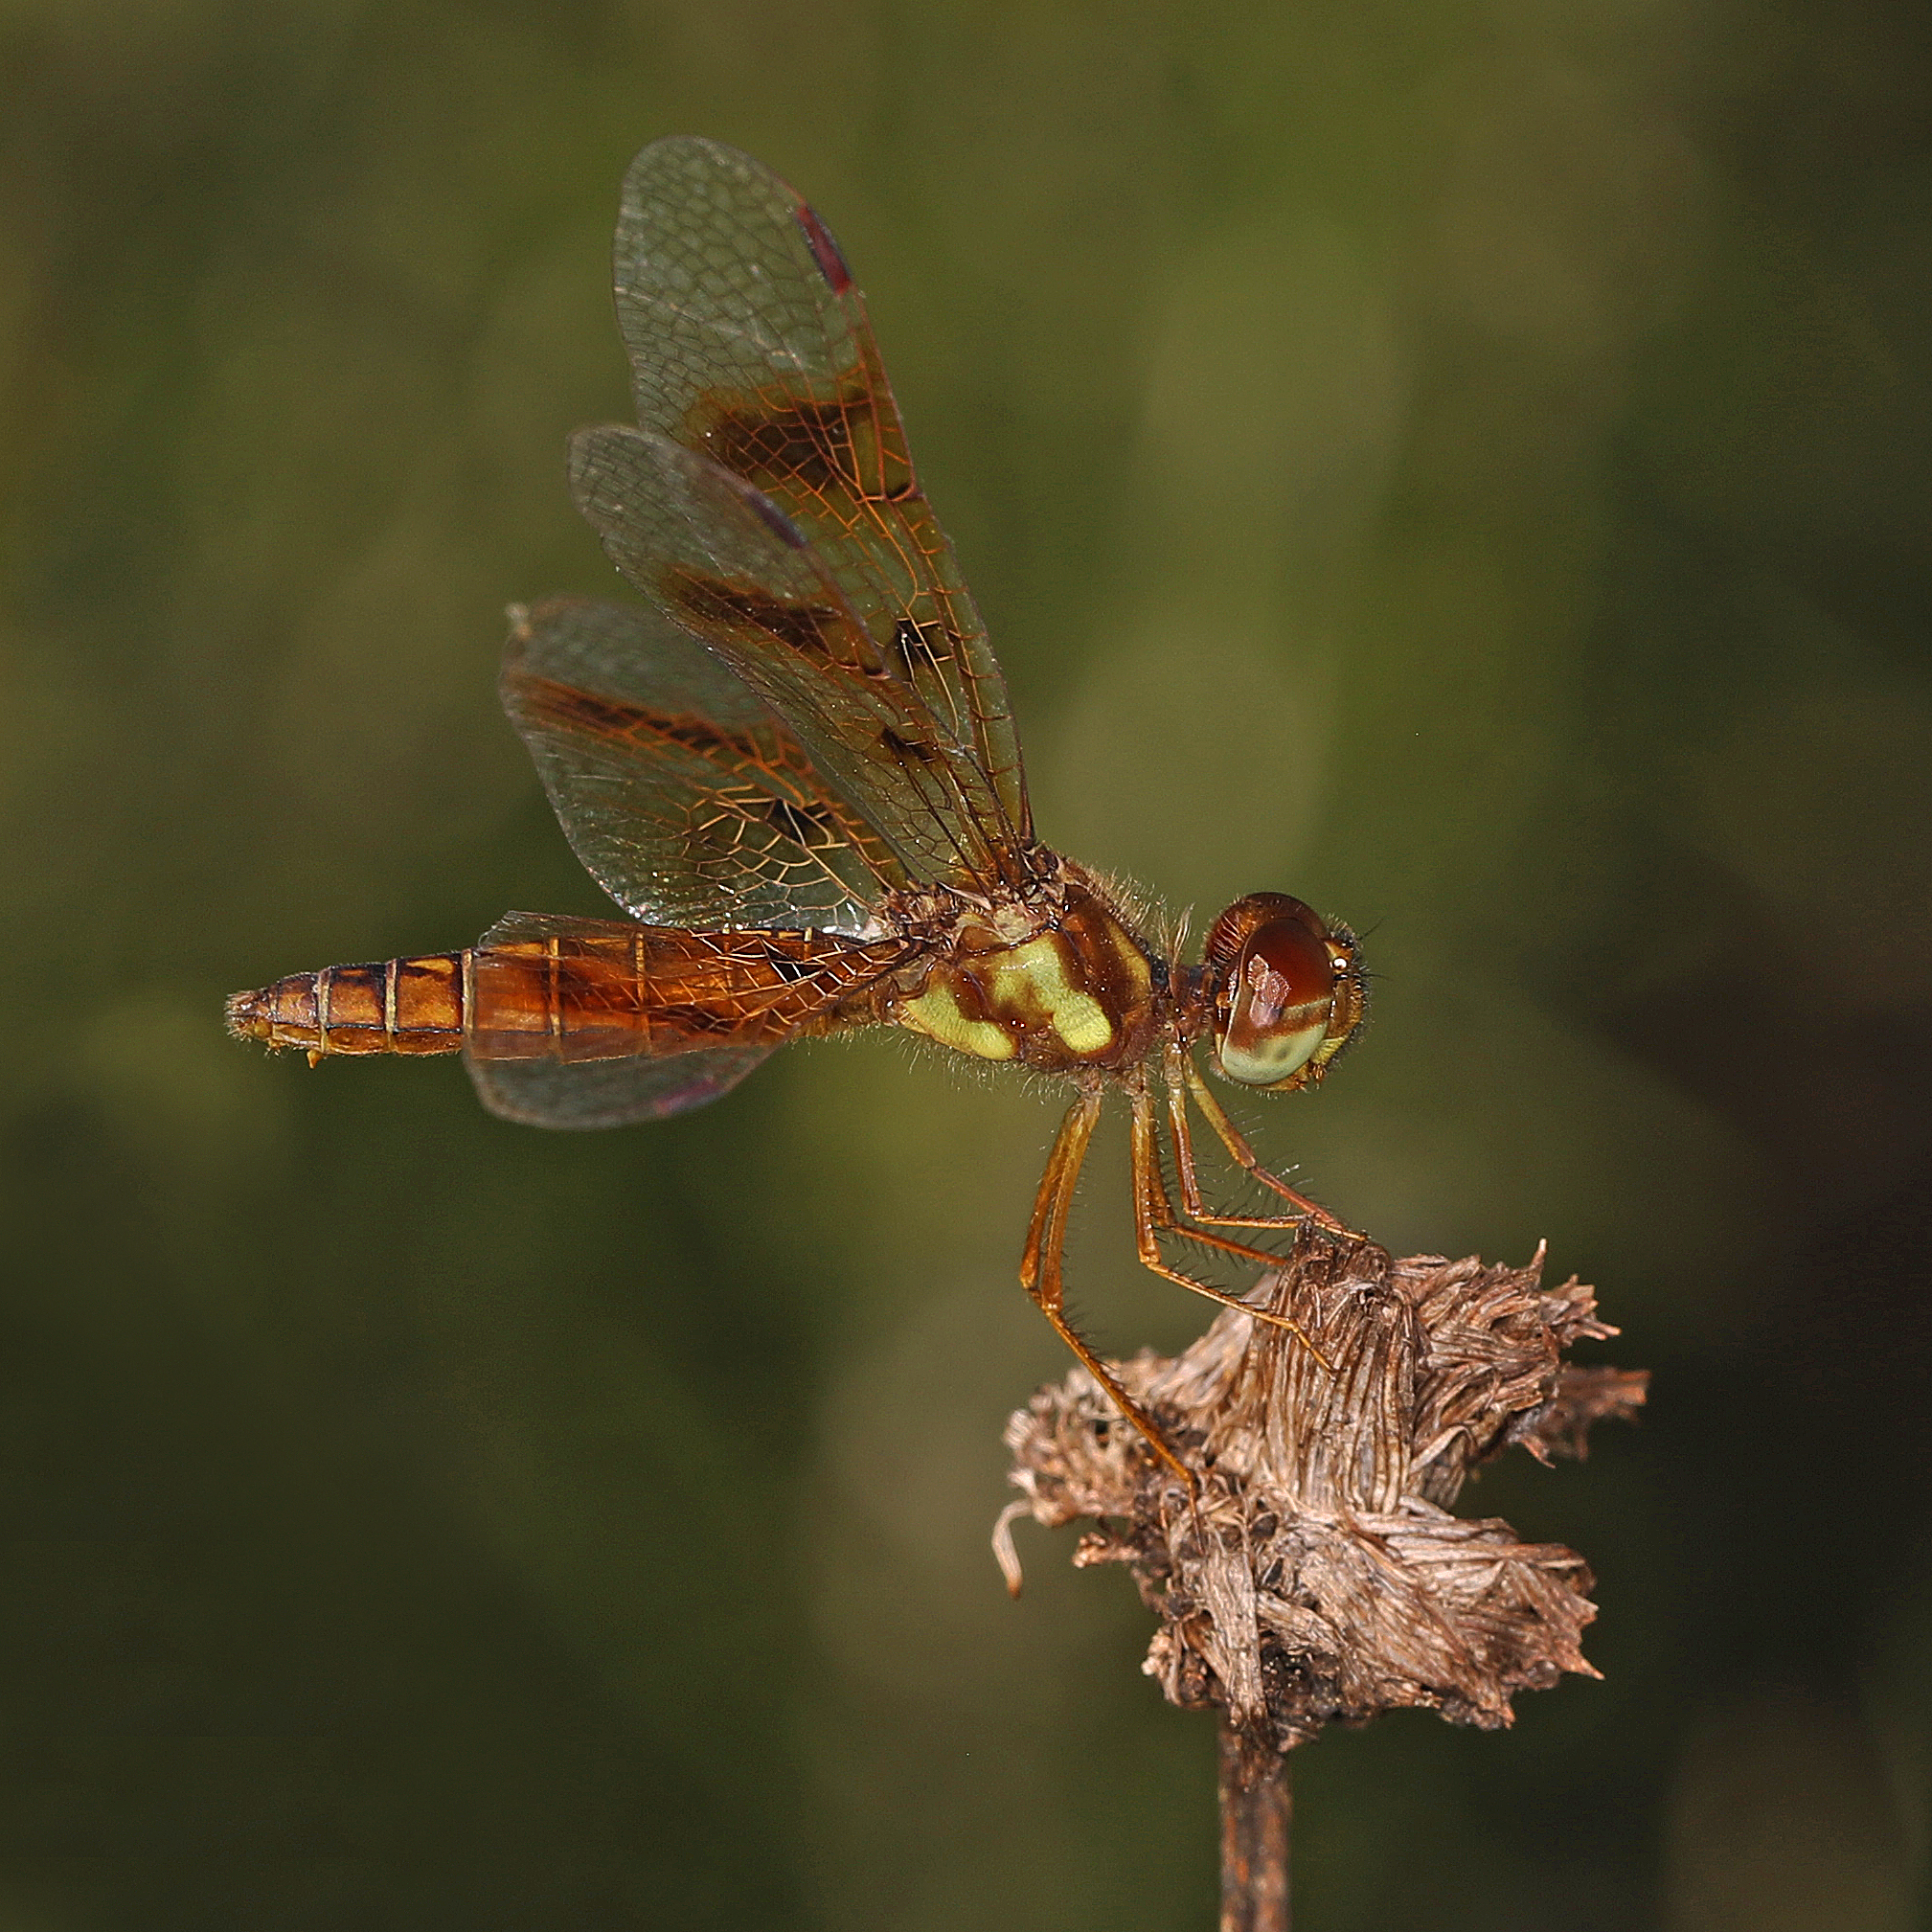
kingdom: Animalia
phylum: Arthropoda
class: Insecta
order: Odonata
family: Libellulidae
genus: Perithemis
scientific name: Perithemis tenera
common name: Eastern amberwing
